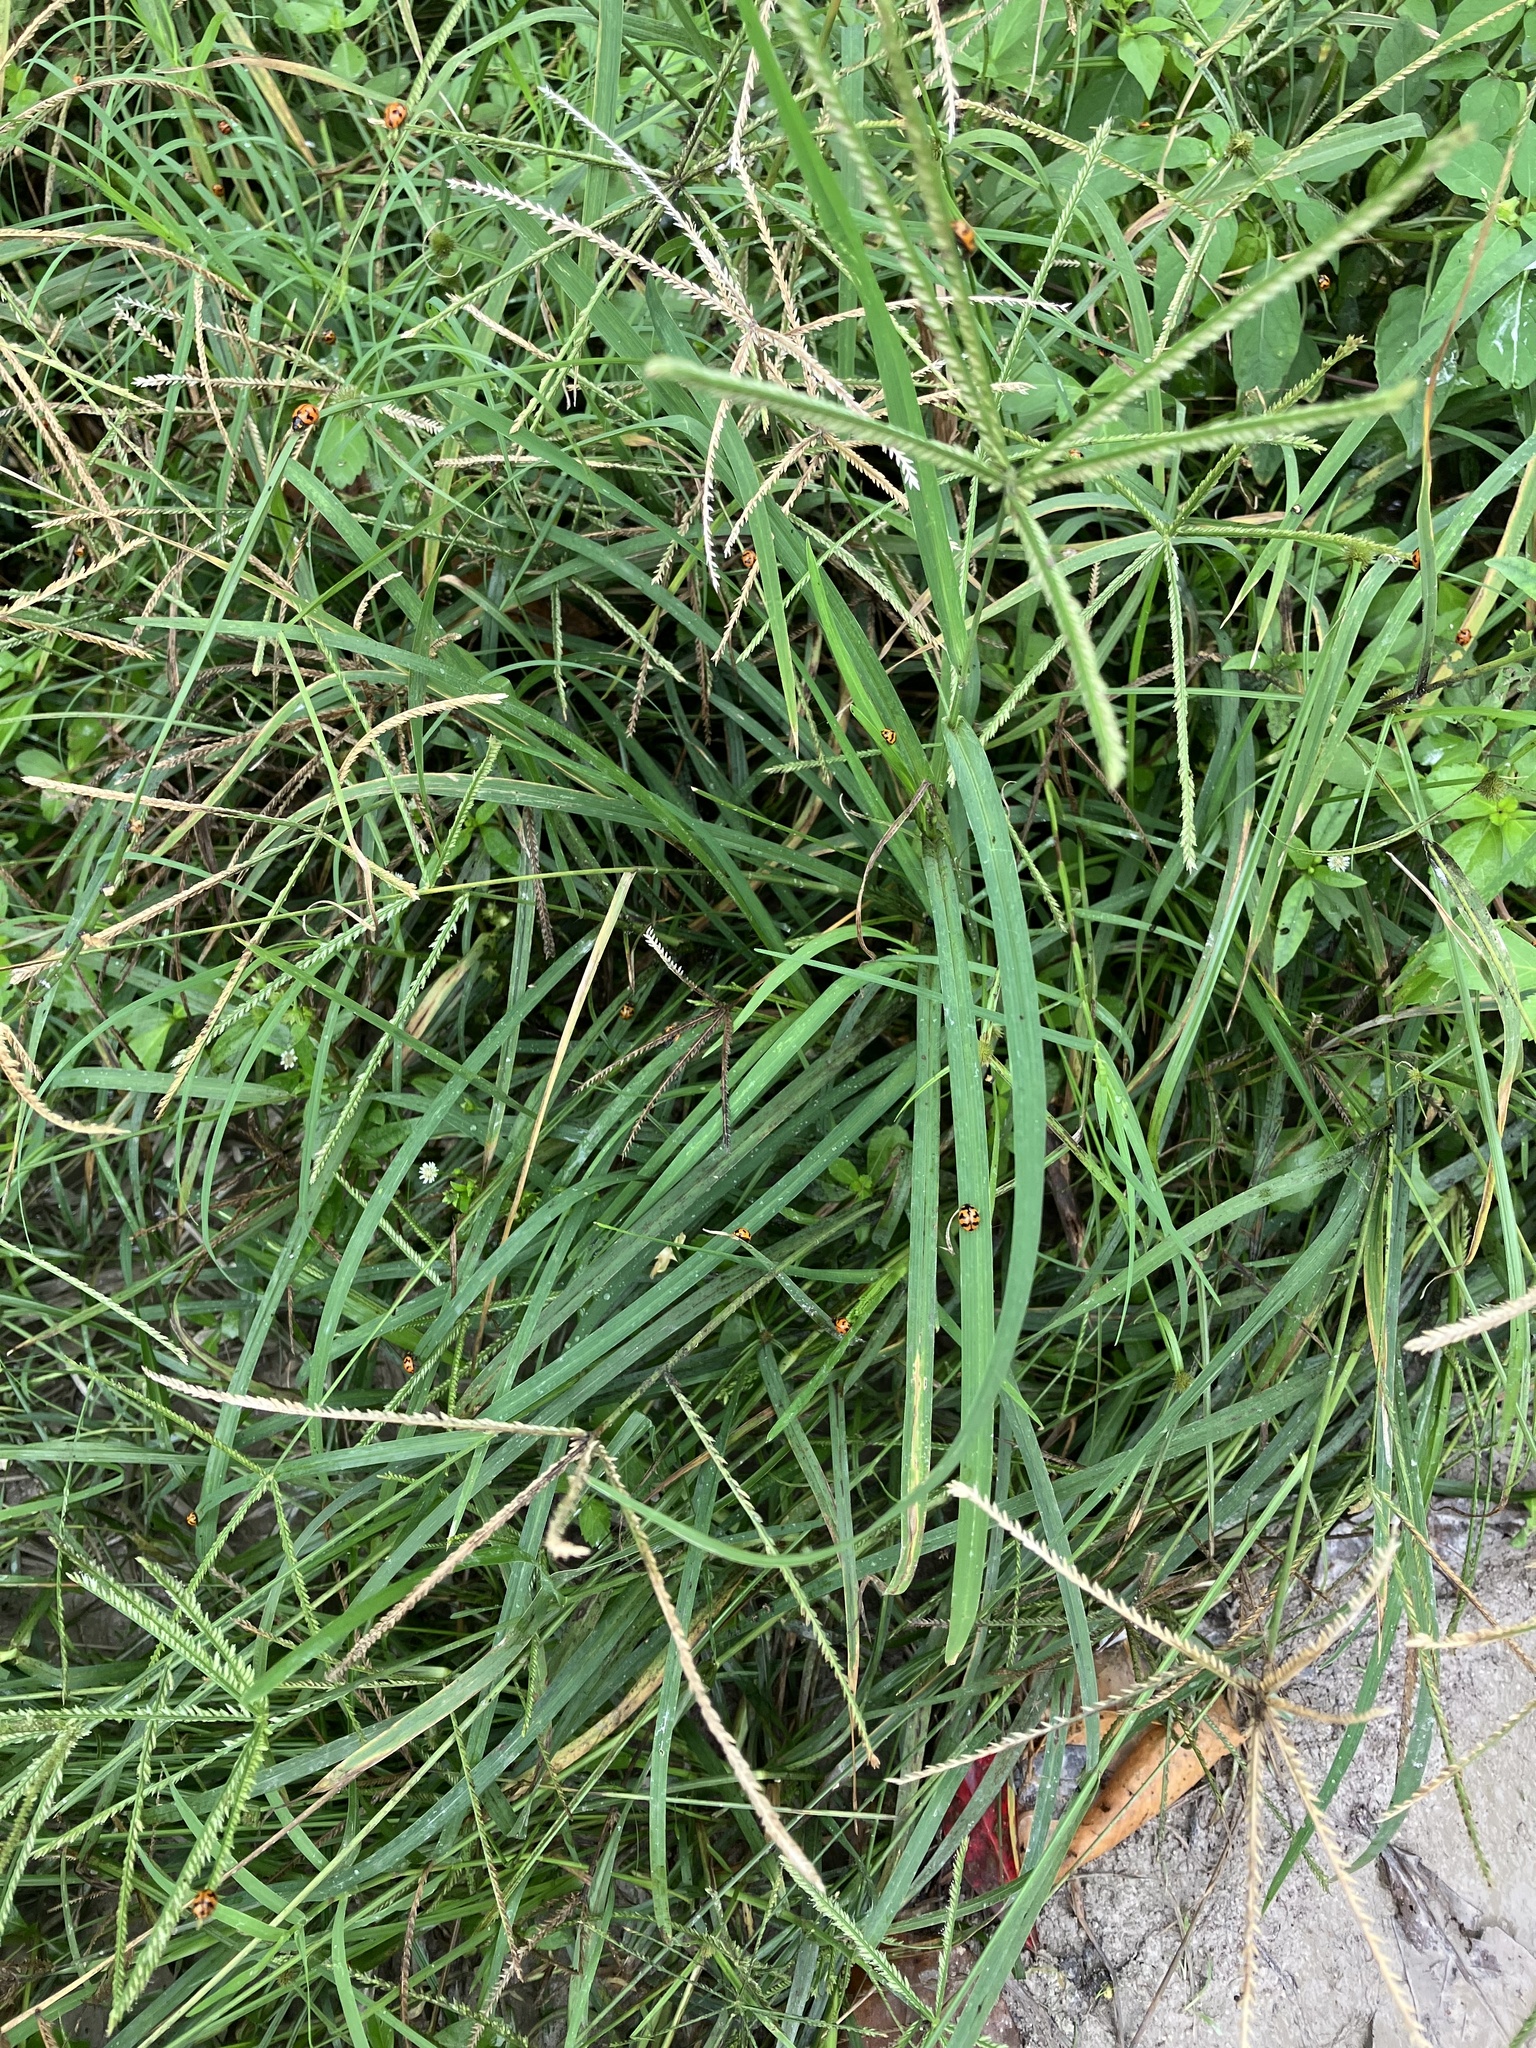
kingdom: Animalia
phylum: Arthropoda
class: Insecta
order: Coleoptera
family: Coccinellidae
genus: Coccinella
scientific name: Coccinella transversalis
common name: Transverse lady beetle
